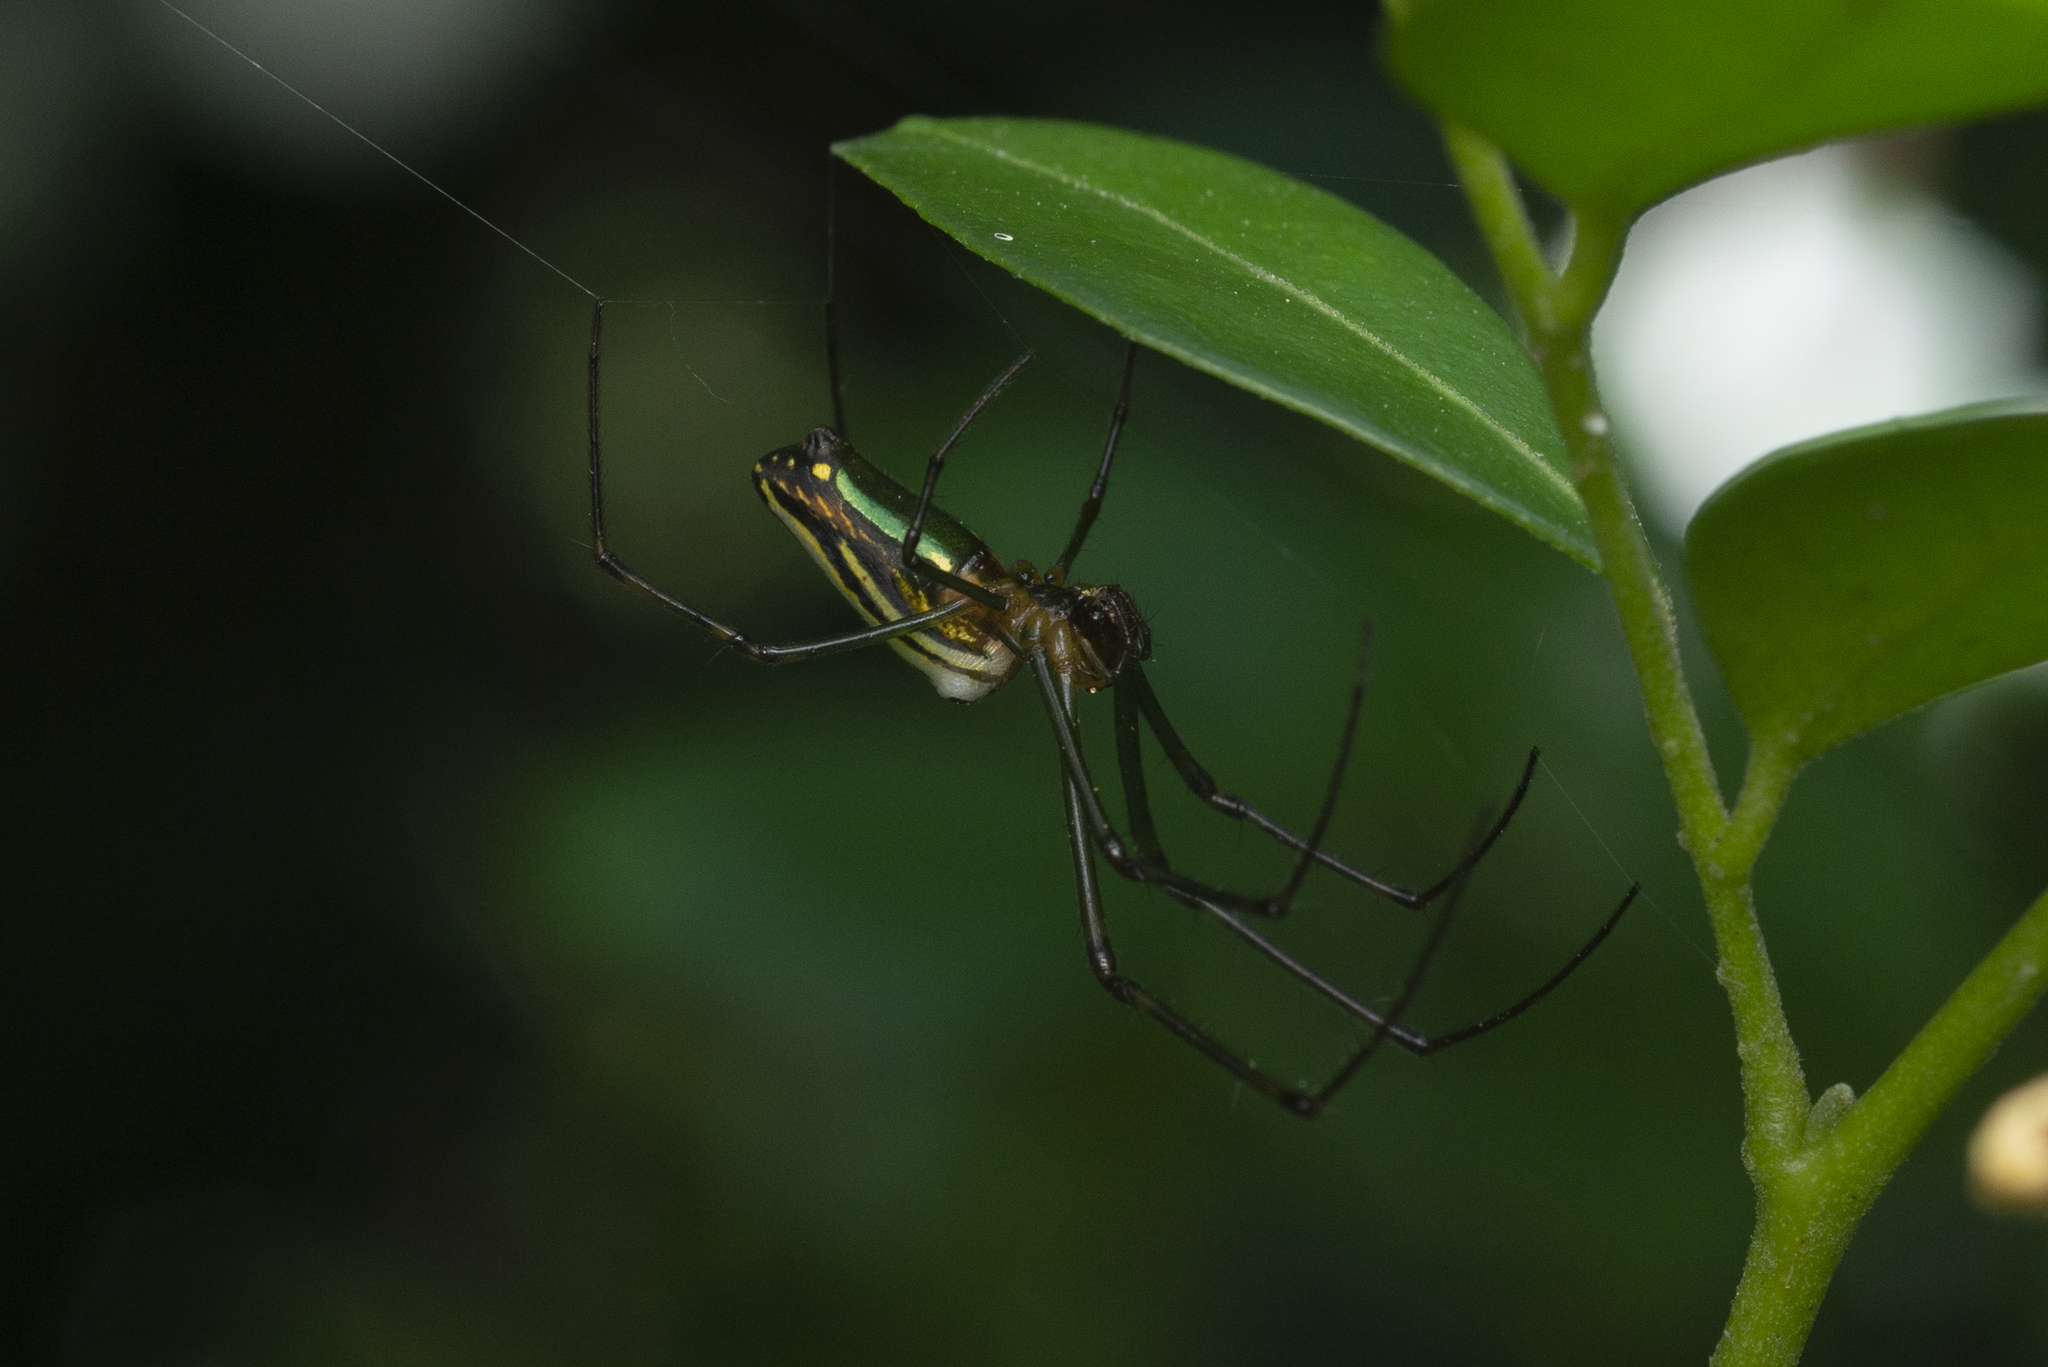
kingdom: Animalia
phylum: Arthropoda
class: Arachnida
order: Araneae
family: Tetragnathidae
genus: Leucauge
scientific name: Leucauge blanda
